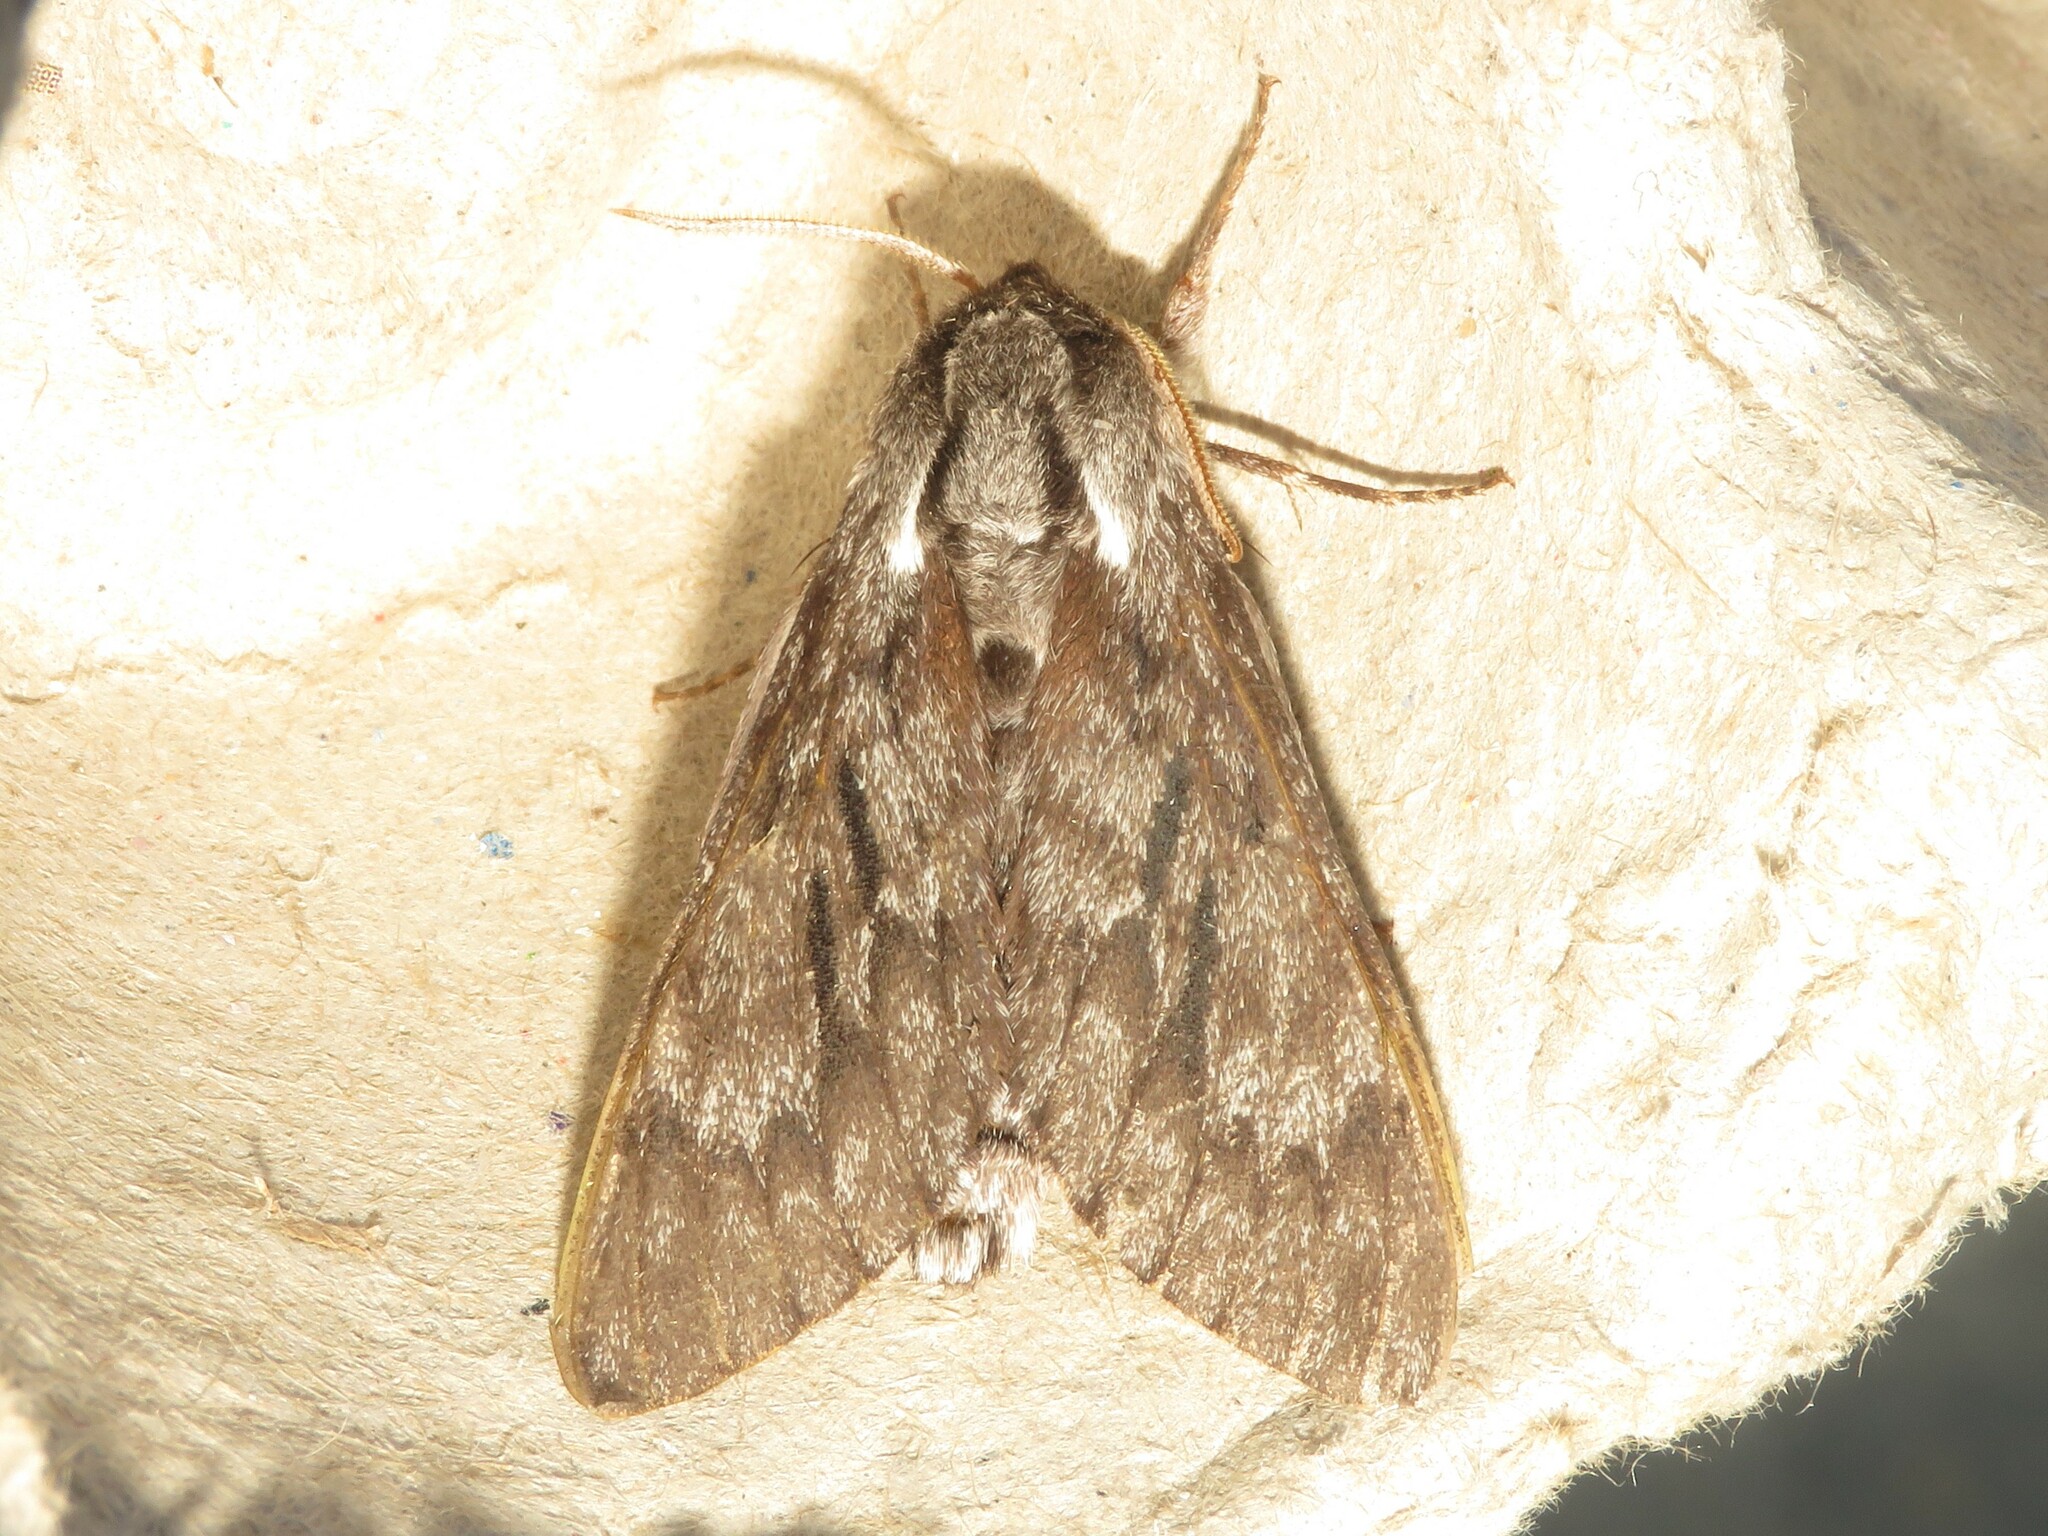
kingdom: Animalia
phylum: Arthropoda
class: Insecta
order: Lepidoptera
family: Sphingidae
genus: Lapara
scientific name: Lapara bombycoides
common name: Northern pine sphinx
